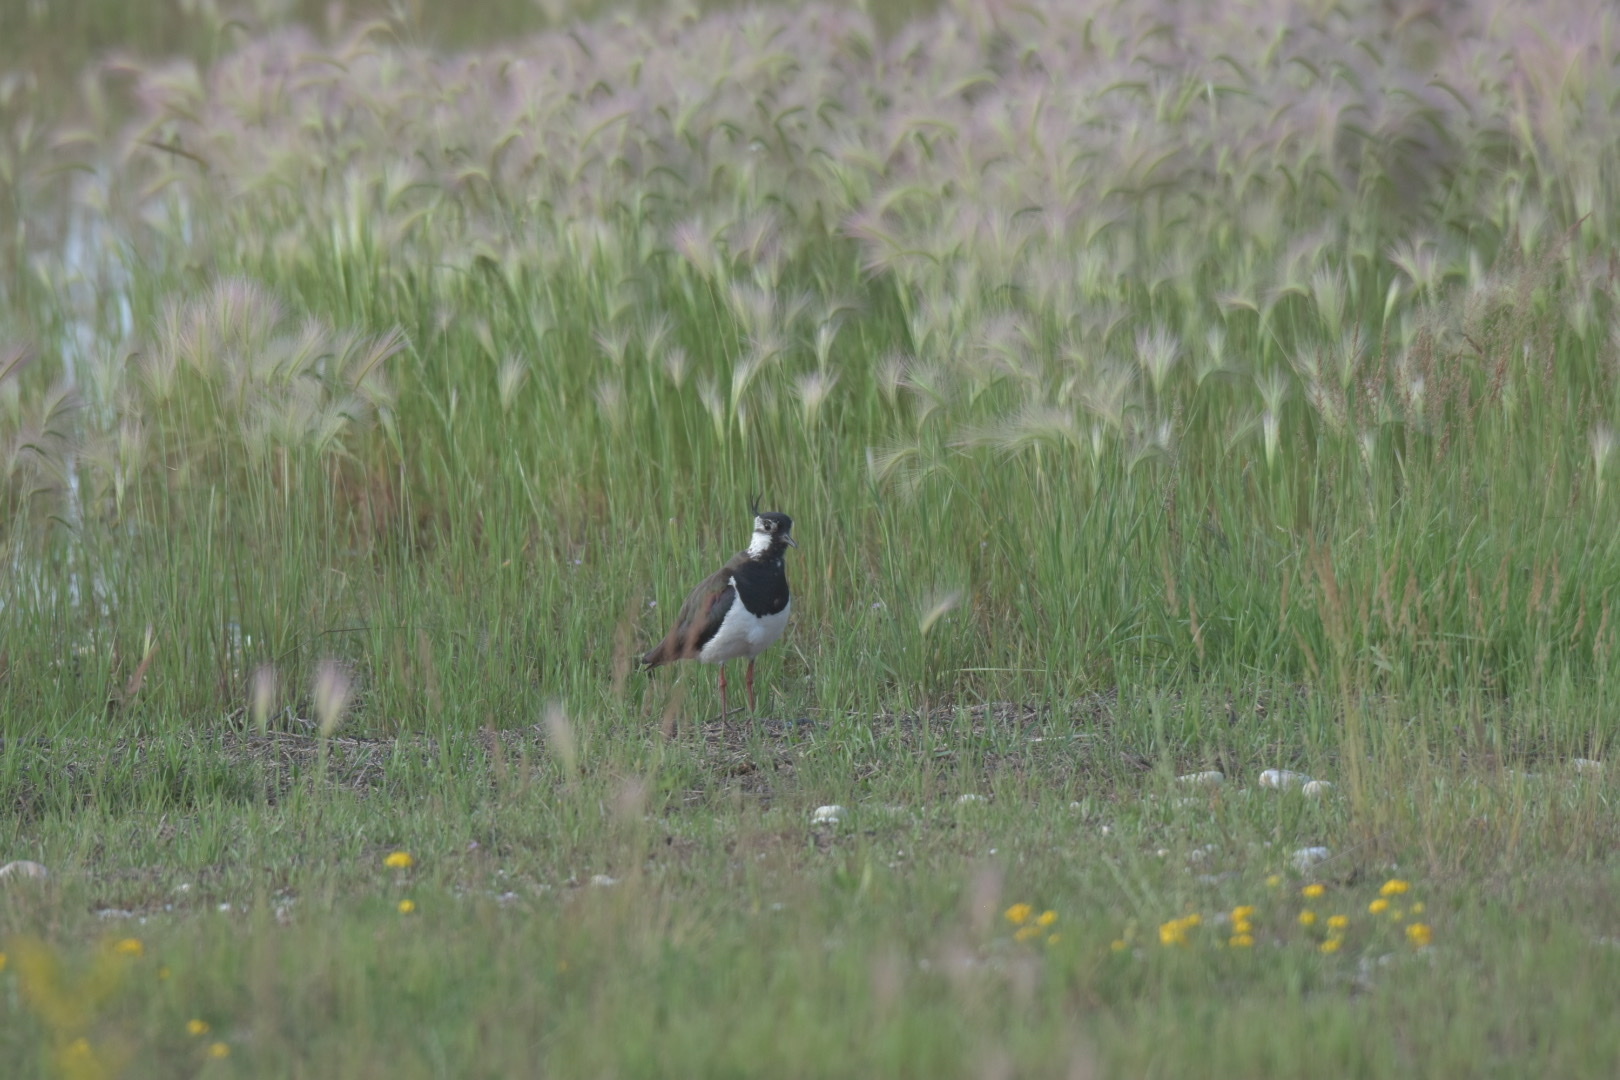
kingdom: Animalia
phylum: Chordata
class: Aves
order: Charadriiformes
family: Charadriidae
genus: Vanellus
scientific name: Vanellus vanellus
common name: Northern lapwing
